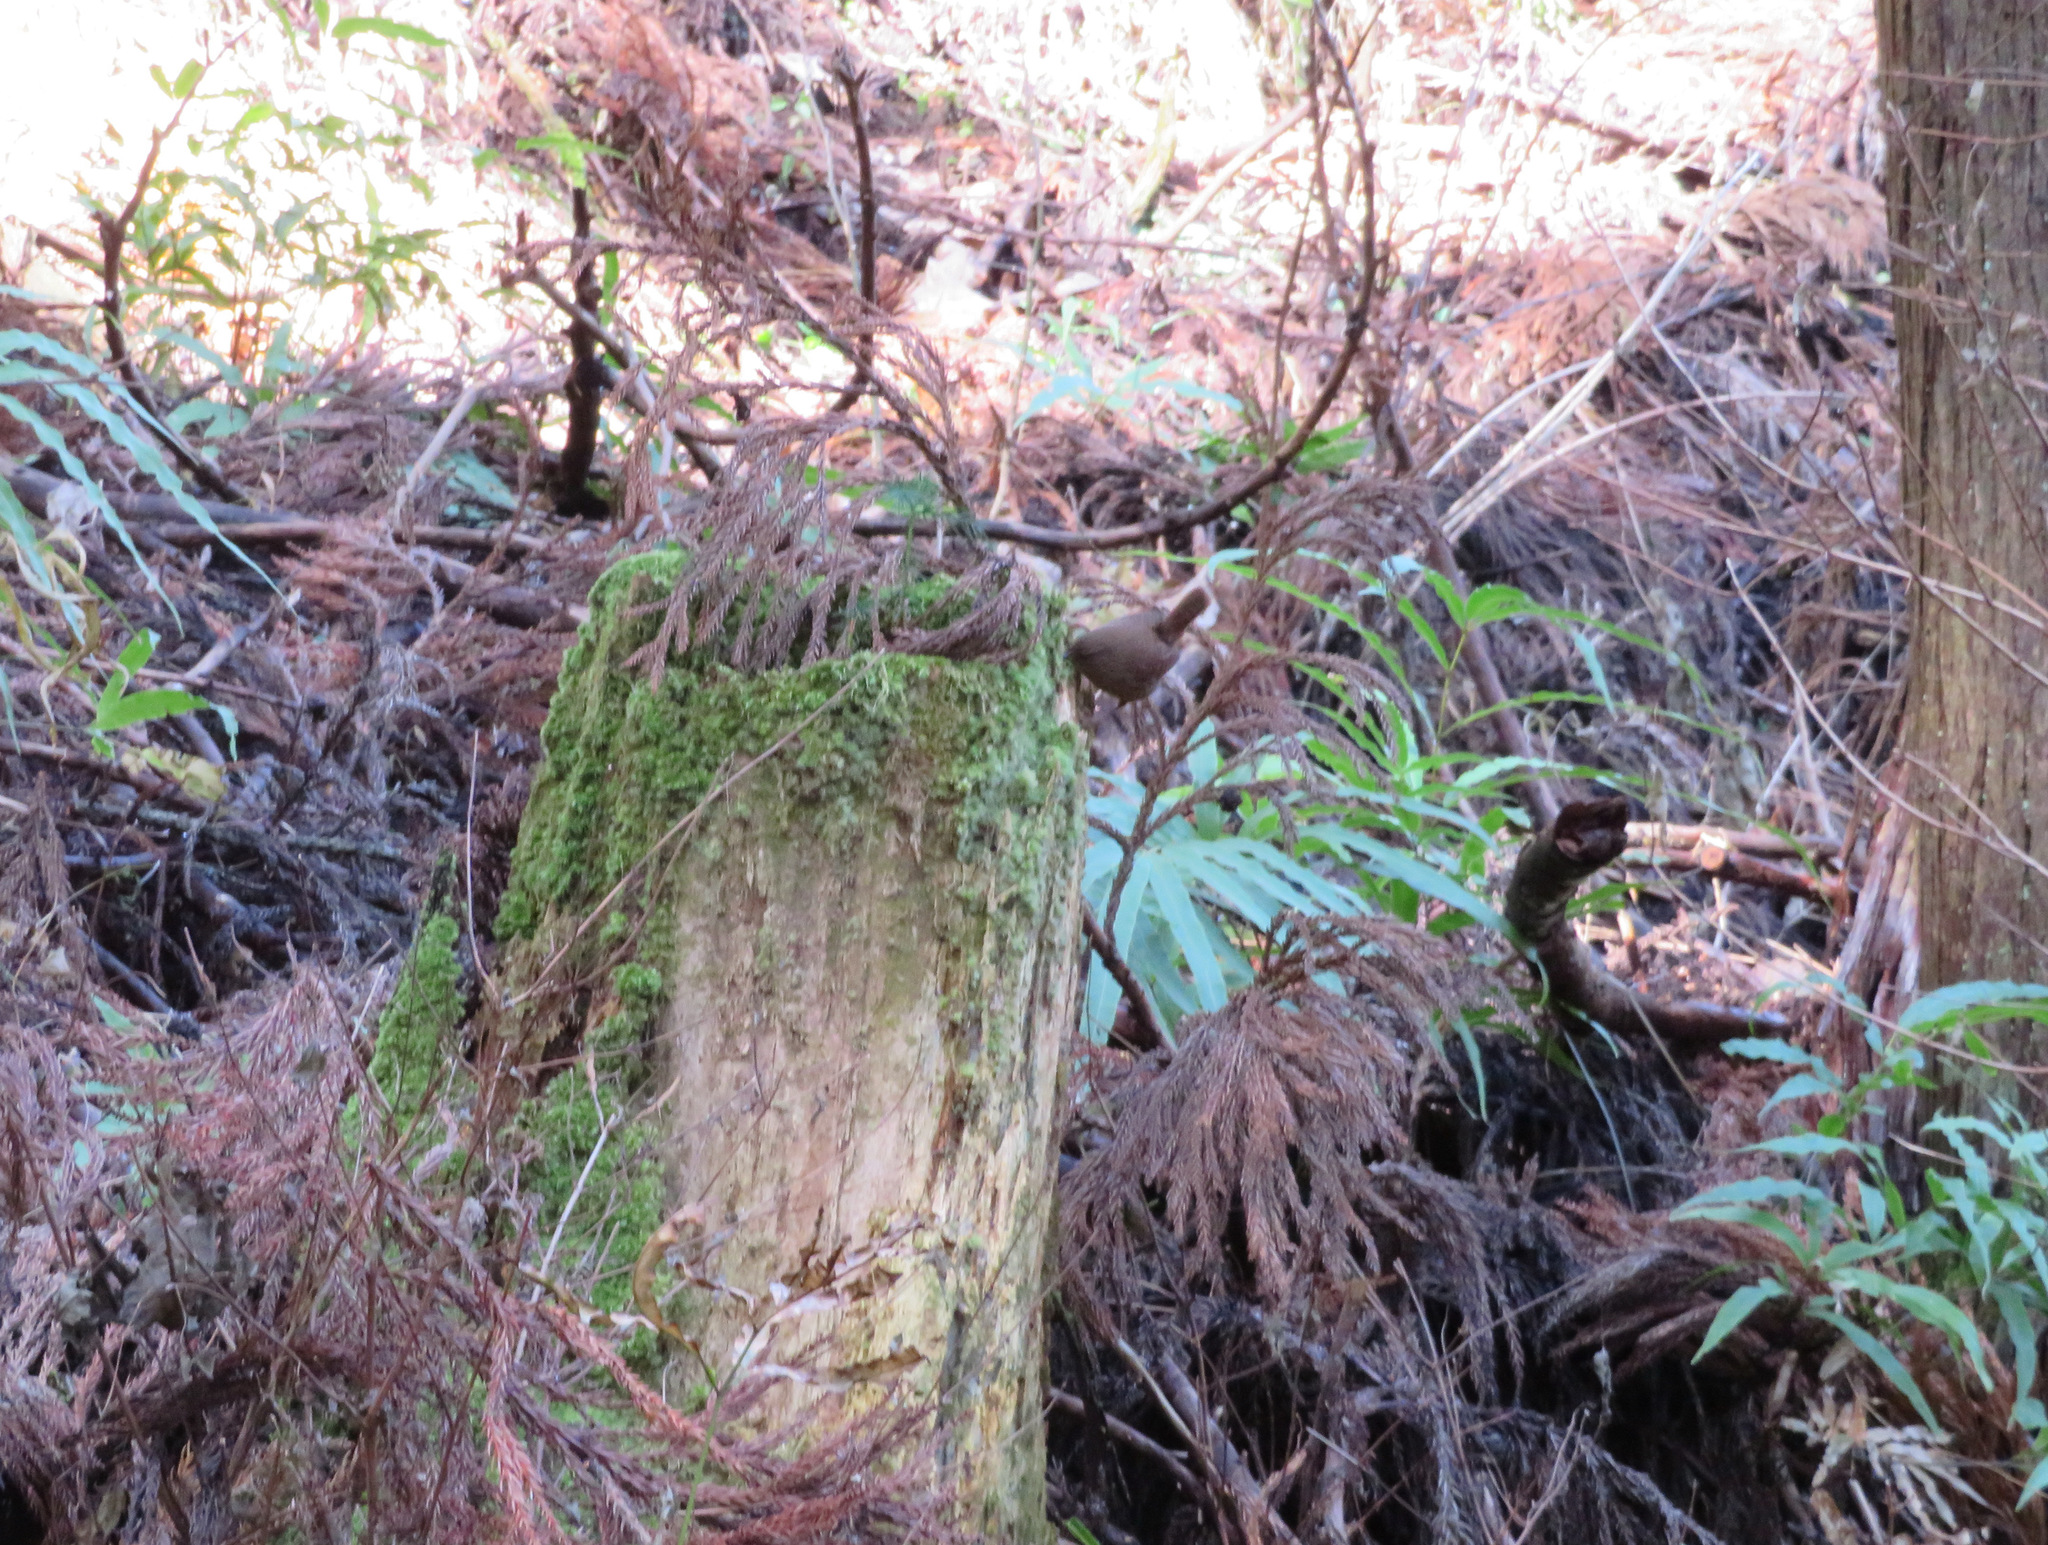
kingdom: Animalia
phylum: Chordata
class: Aves
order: Passeriformes
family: Troglodytidae
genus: Troglodytes
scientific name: Troglodytes troglodytes
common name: Eurasian wren
